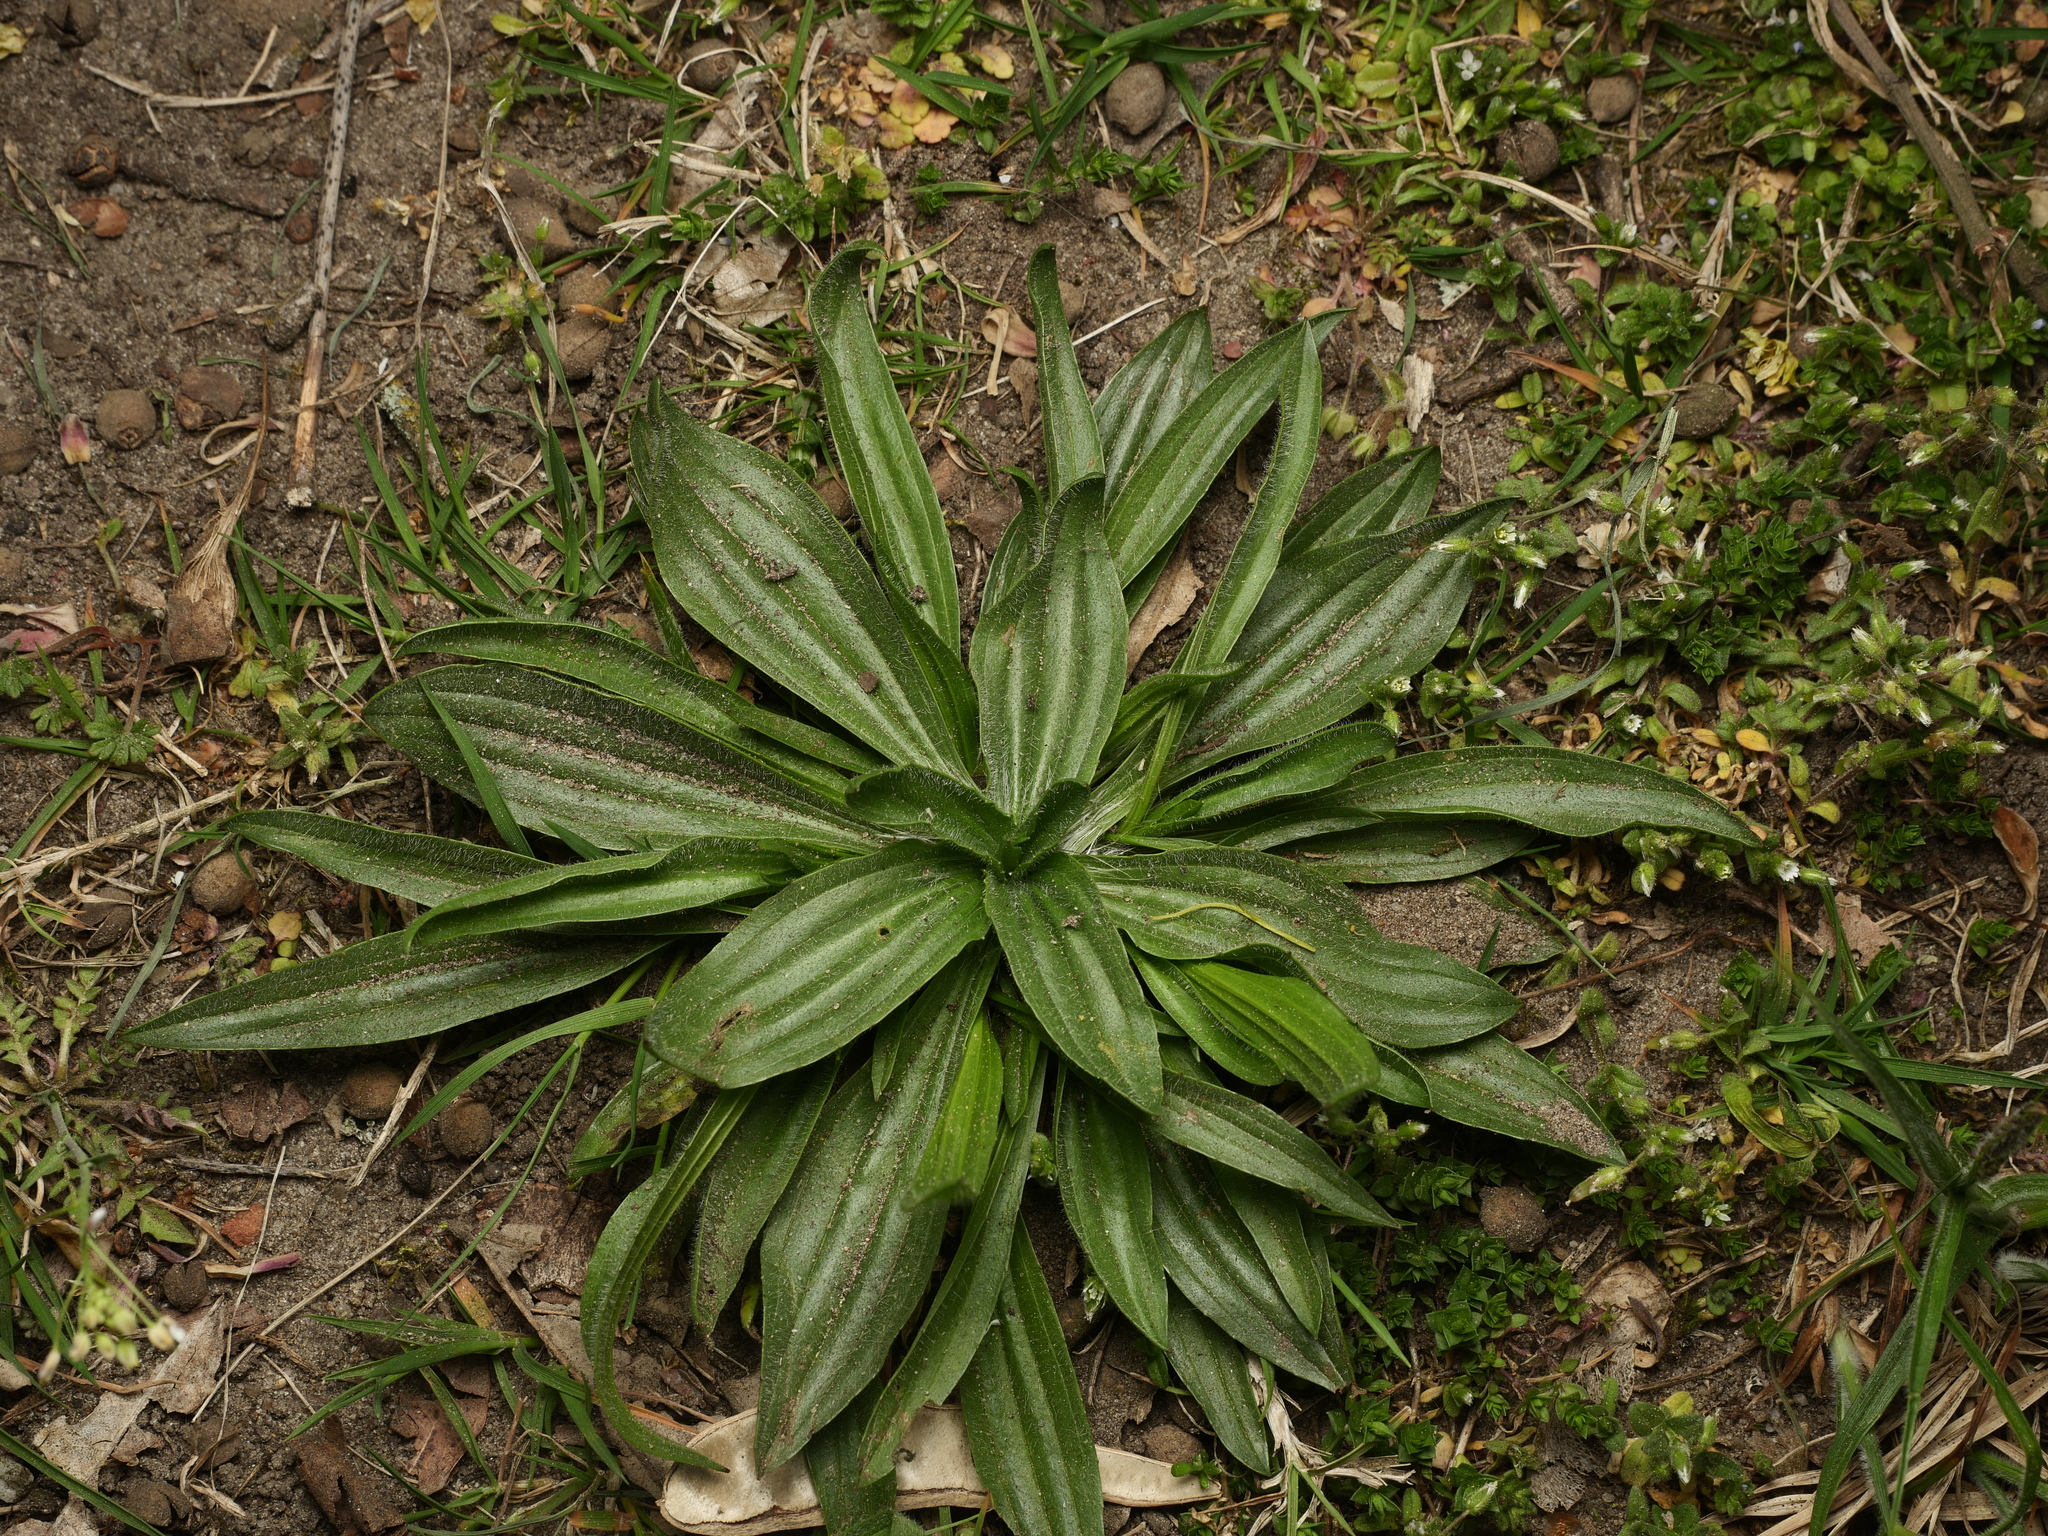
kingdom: Plantae
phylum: Tracheophyta
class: Magnoliopsida
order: Lamiales
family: Plantaginaceae
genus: Plantago
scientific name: Plantago lanceolata
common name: Ribwort plantain
